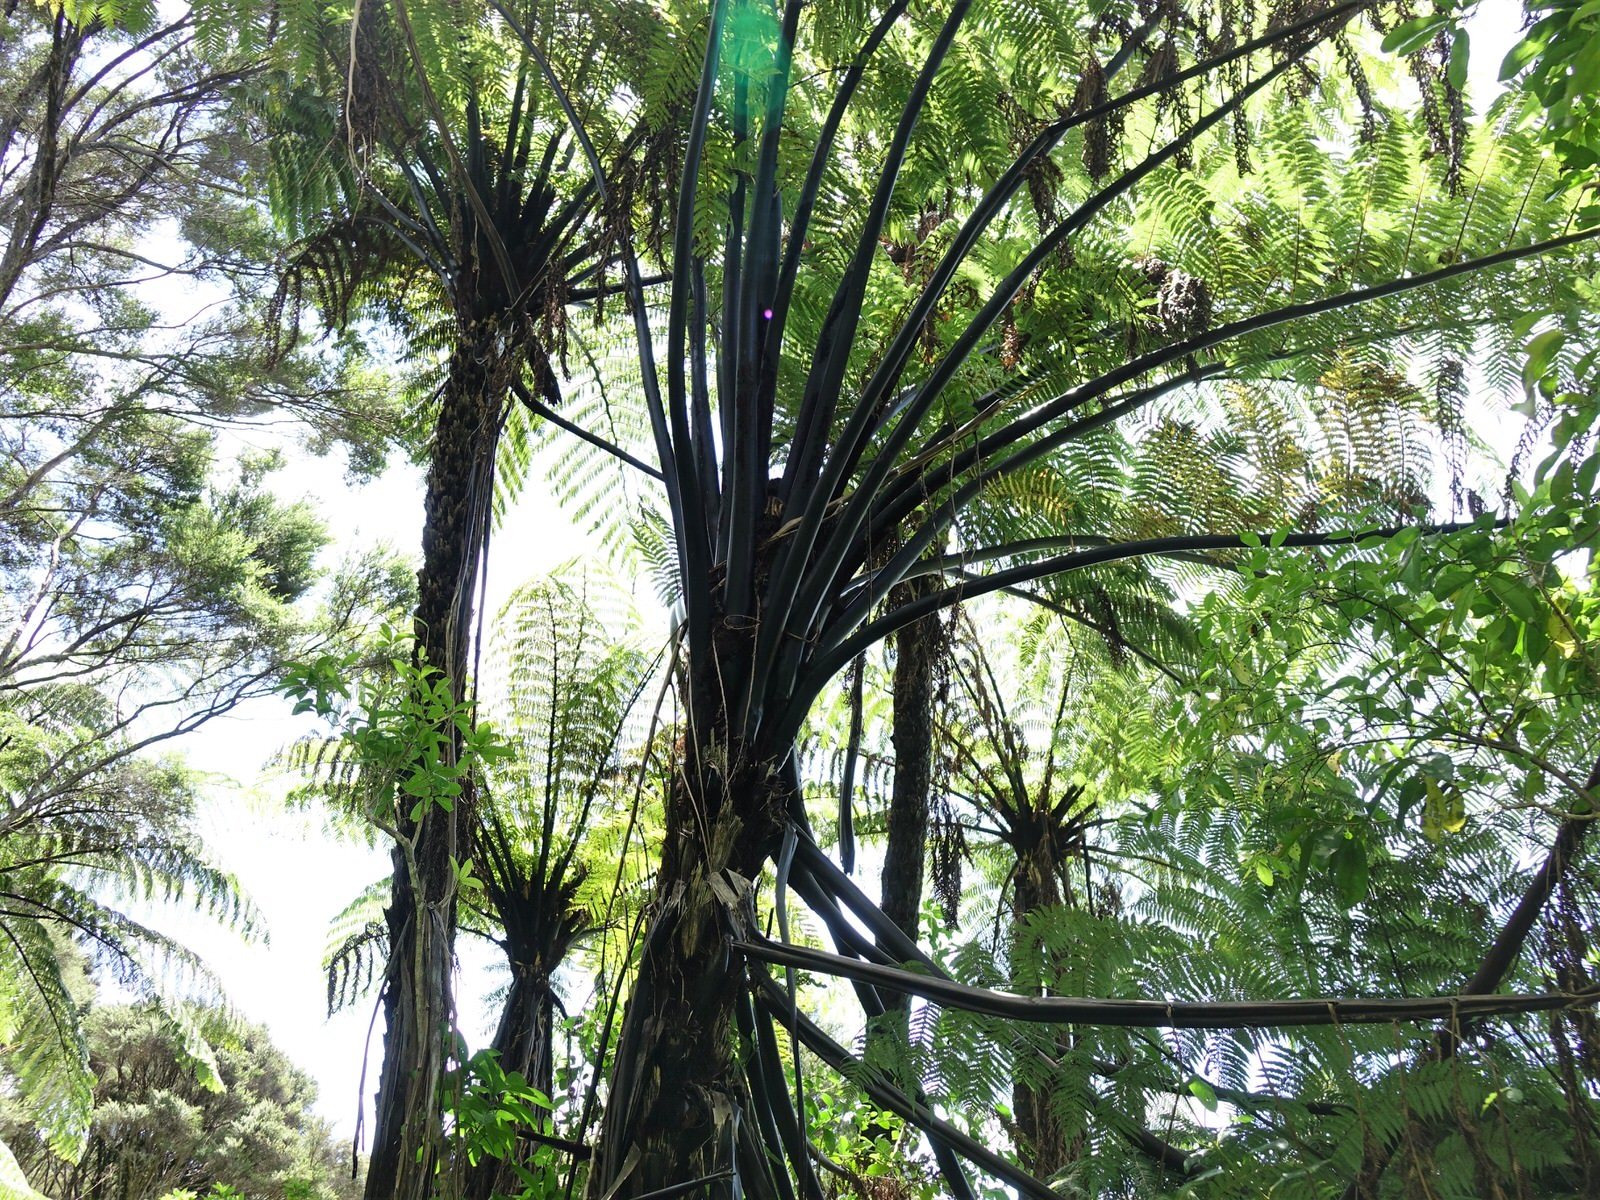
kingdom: Plantae
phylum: Tracheophyta
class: Polypodiopsida
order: Cyatheales
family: Cyatheaceae
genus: Sphaeropteris
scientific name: Sphaeropteris medullaris
